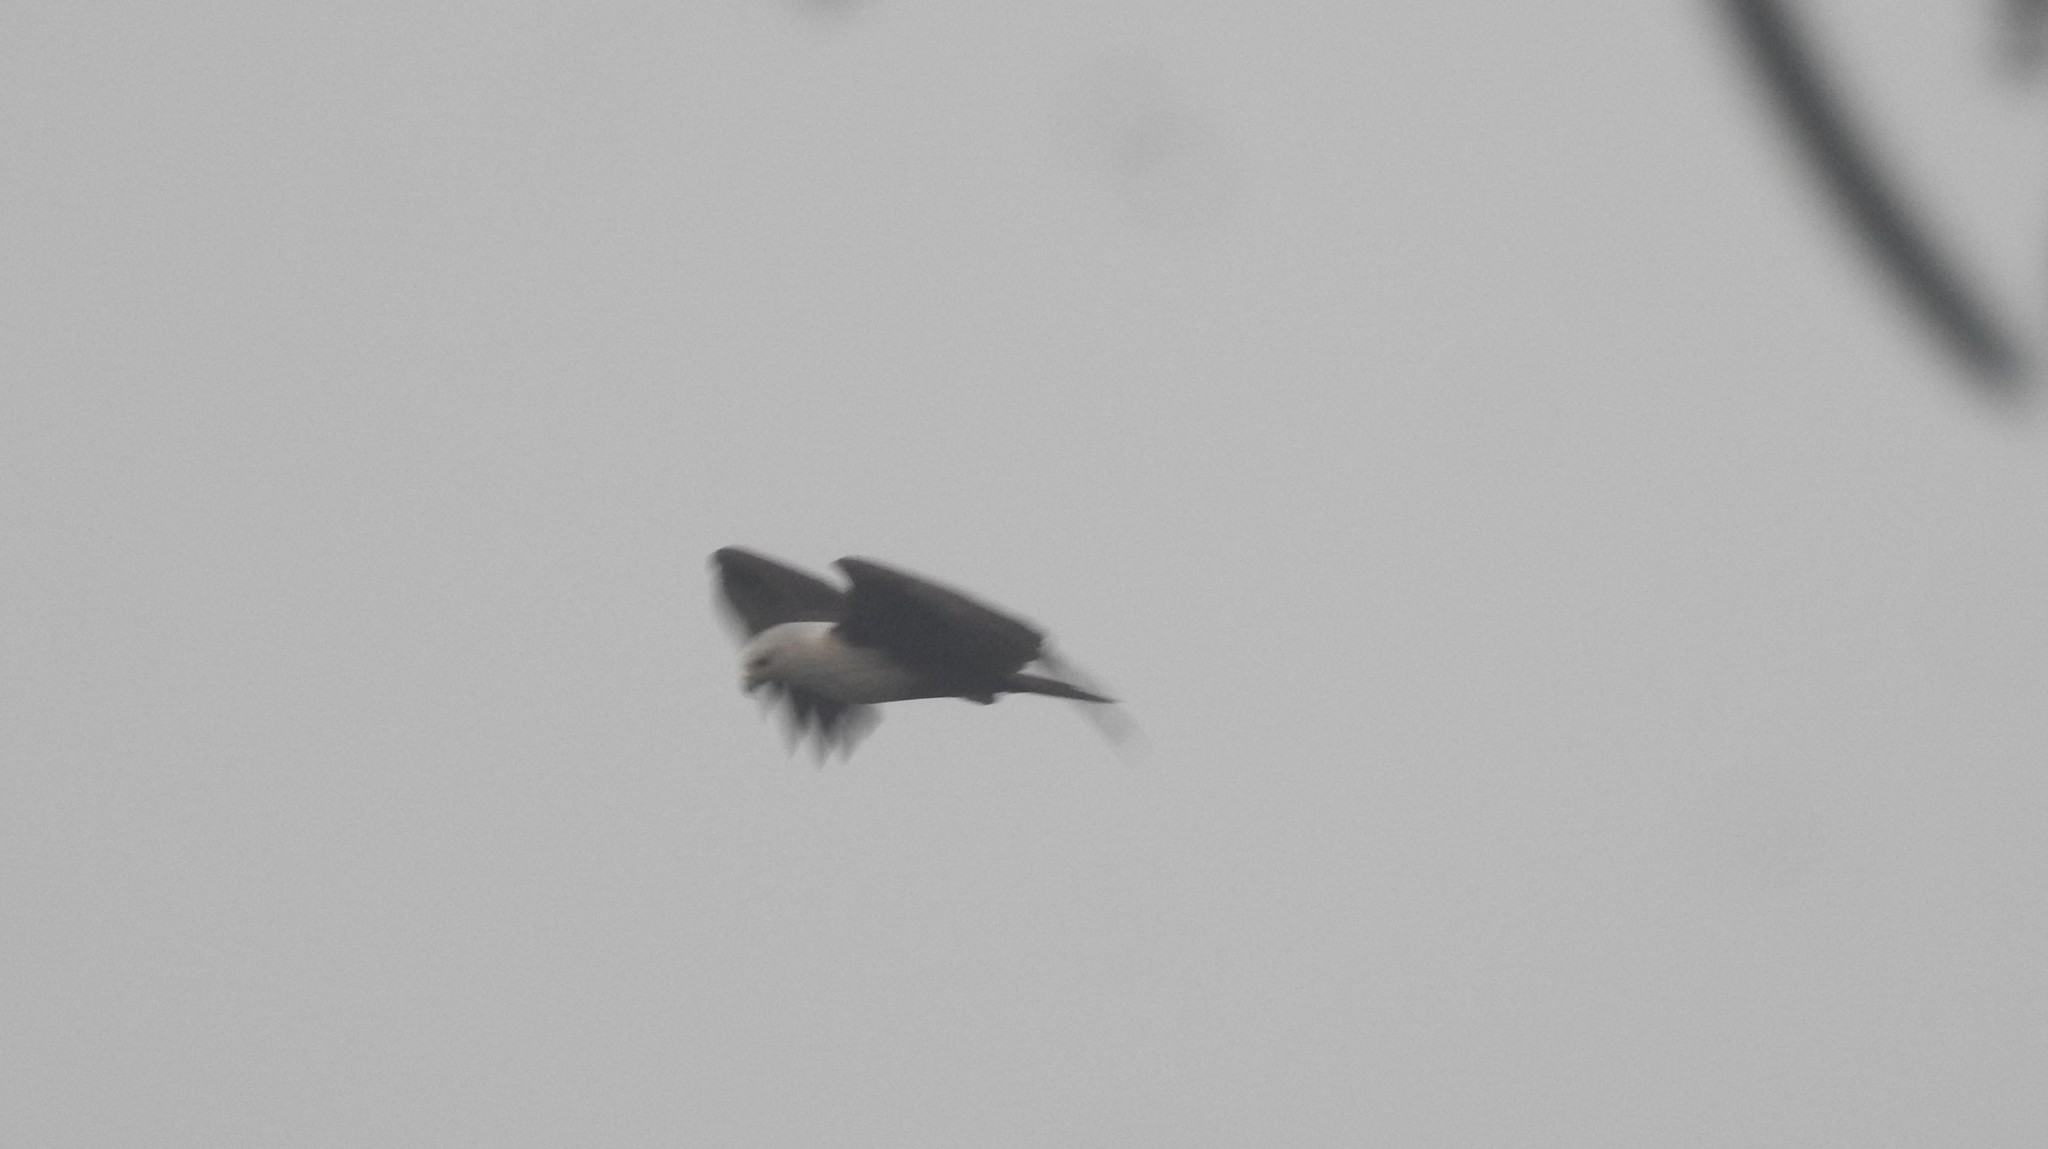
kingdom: Animalia
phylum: Chordata
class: Aves
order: Accipitriformes
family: Accipitridae
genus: Haliastur
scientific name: Haliastur indus
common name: Brahminy kite
